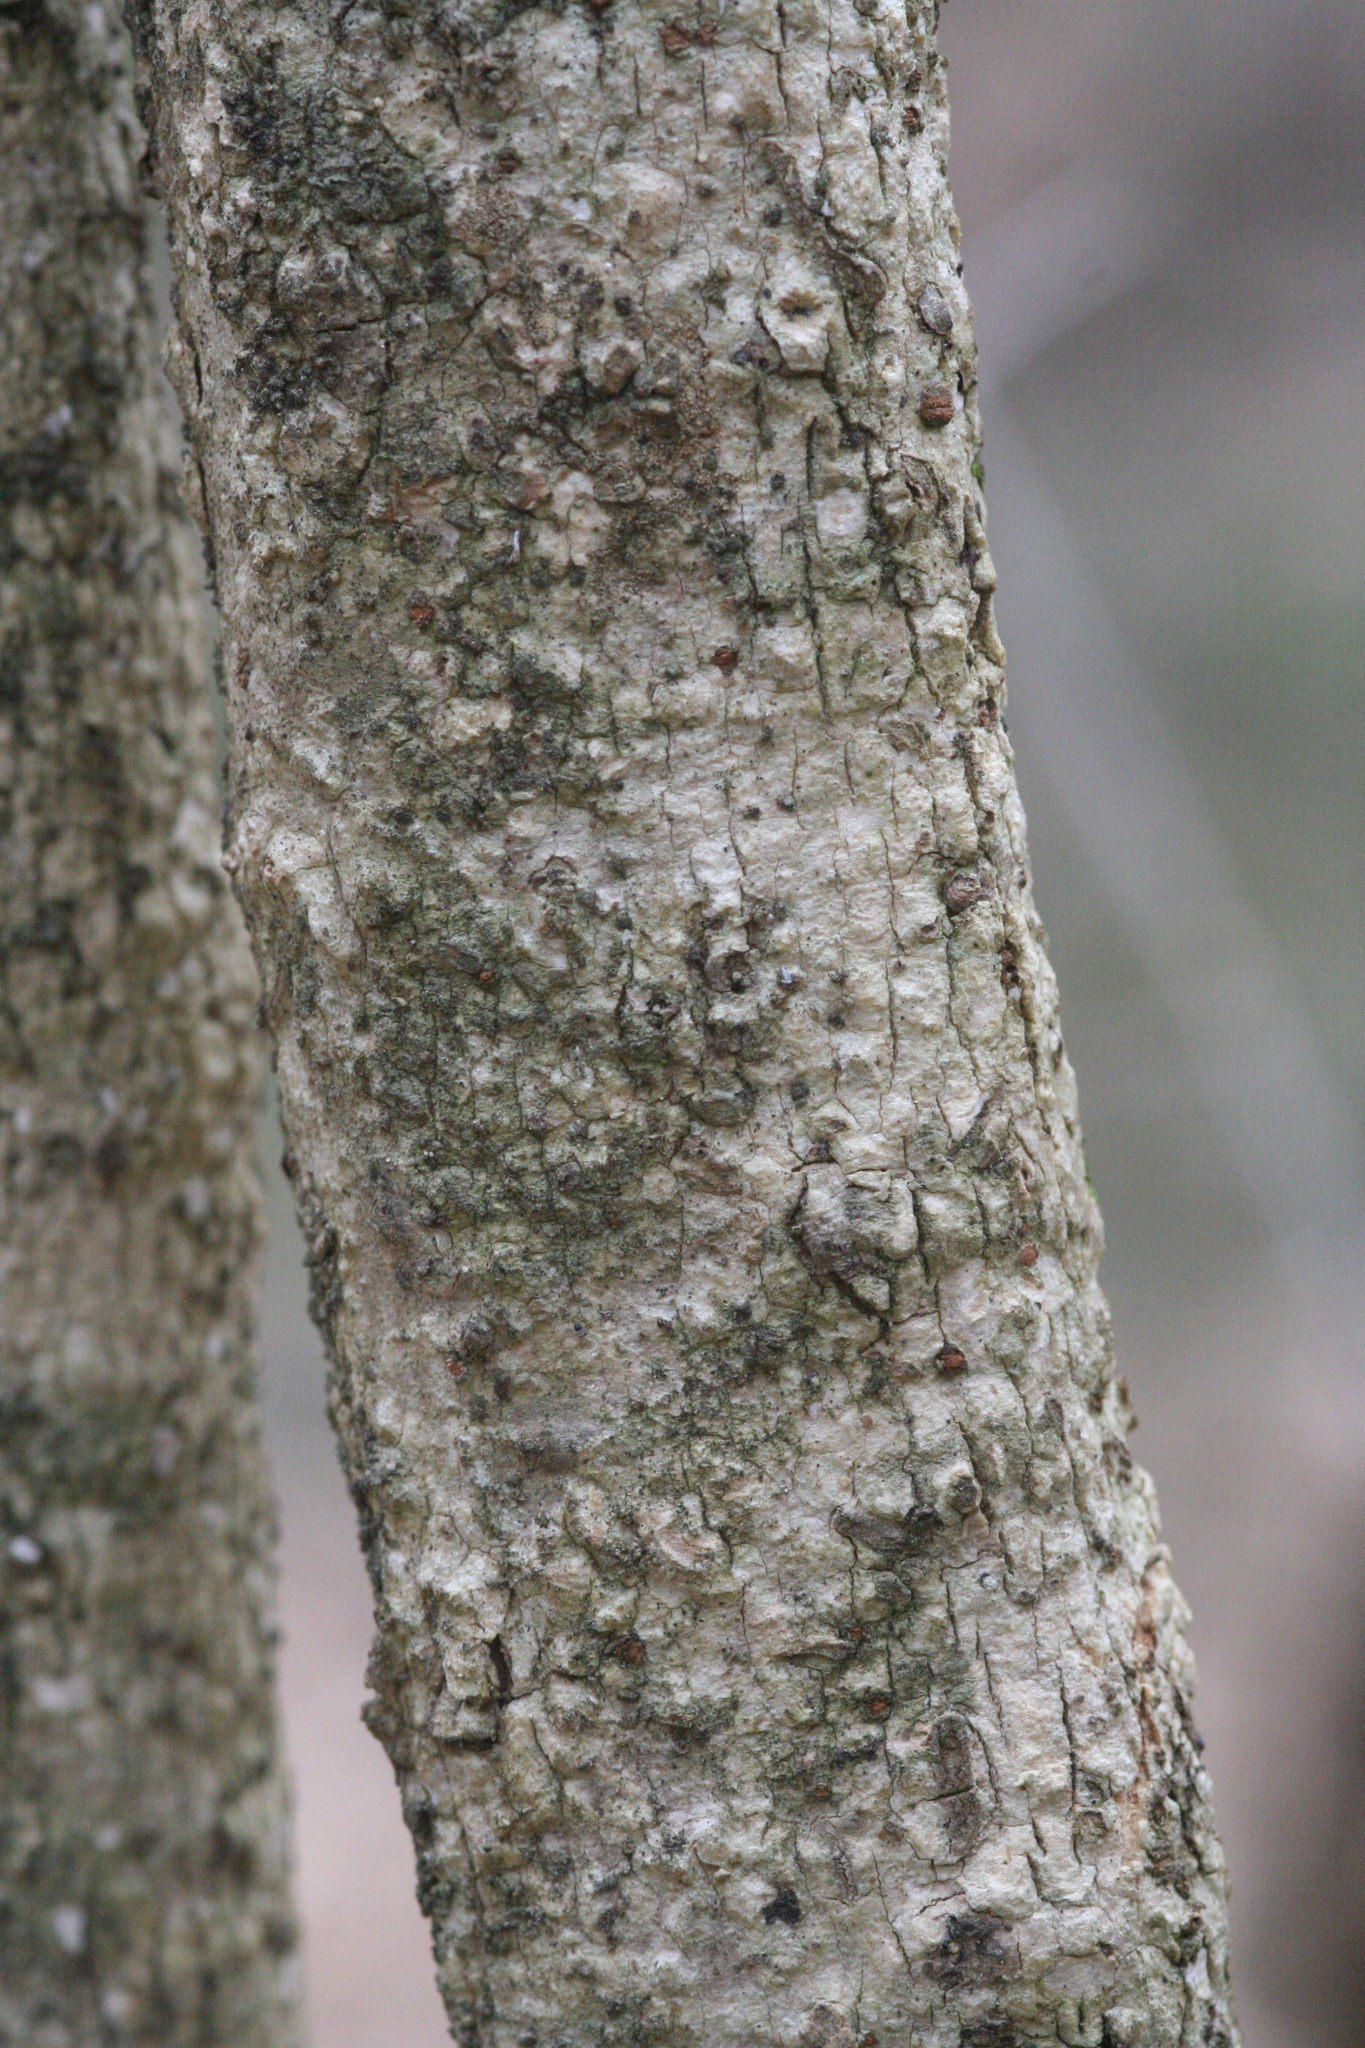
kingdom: Plantae
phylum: Tracheophyta
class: Magnoliopsida
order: Dipsacales
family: Viburnaceae
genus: Viburnum
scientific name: Viburnum rufidulum
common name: Blue haw
